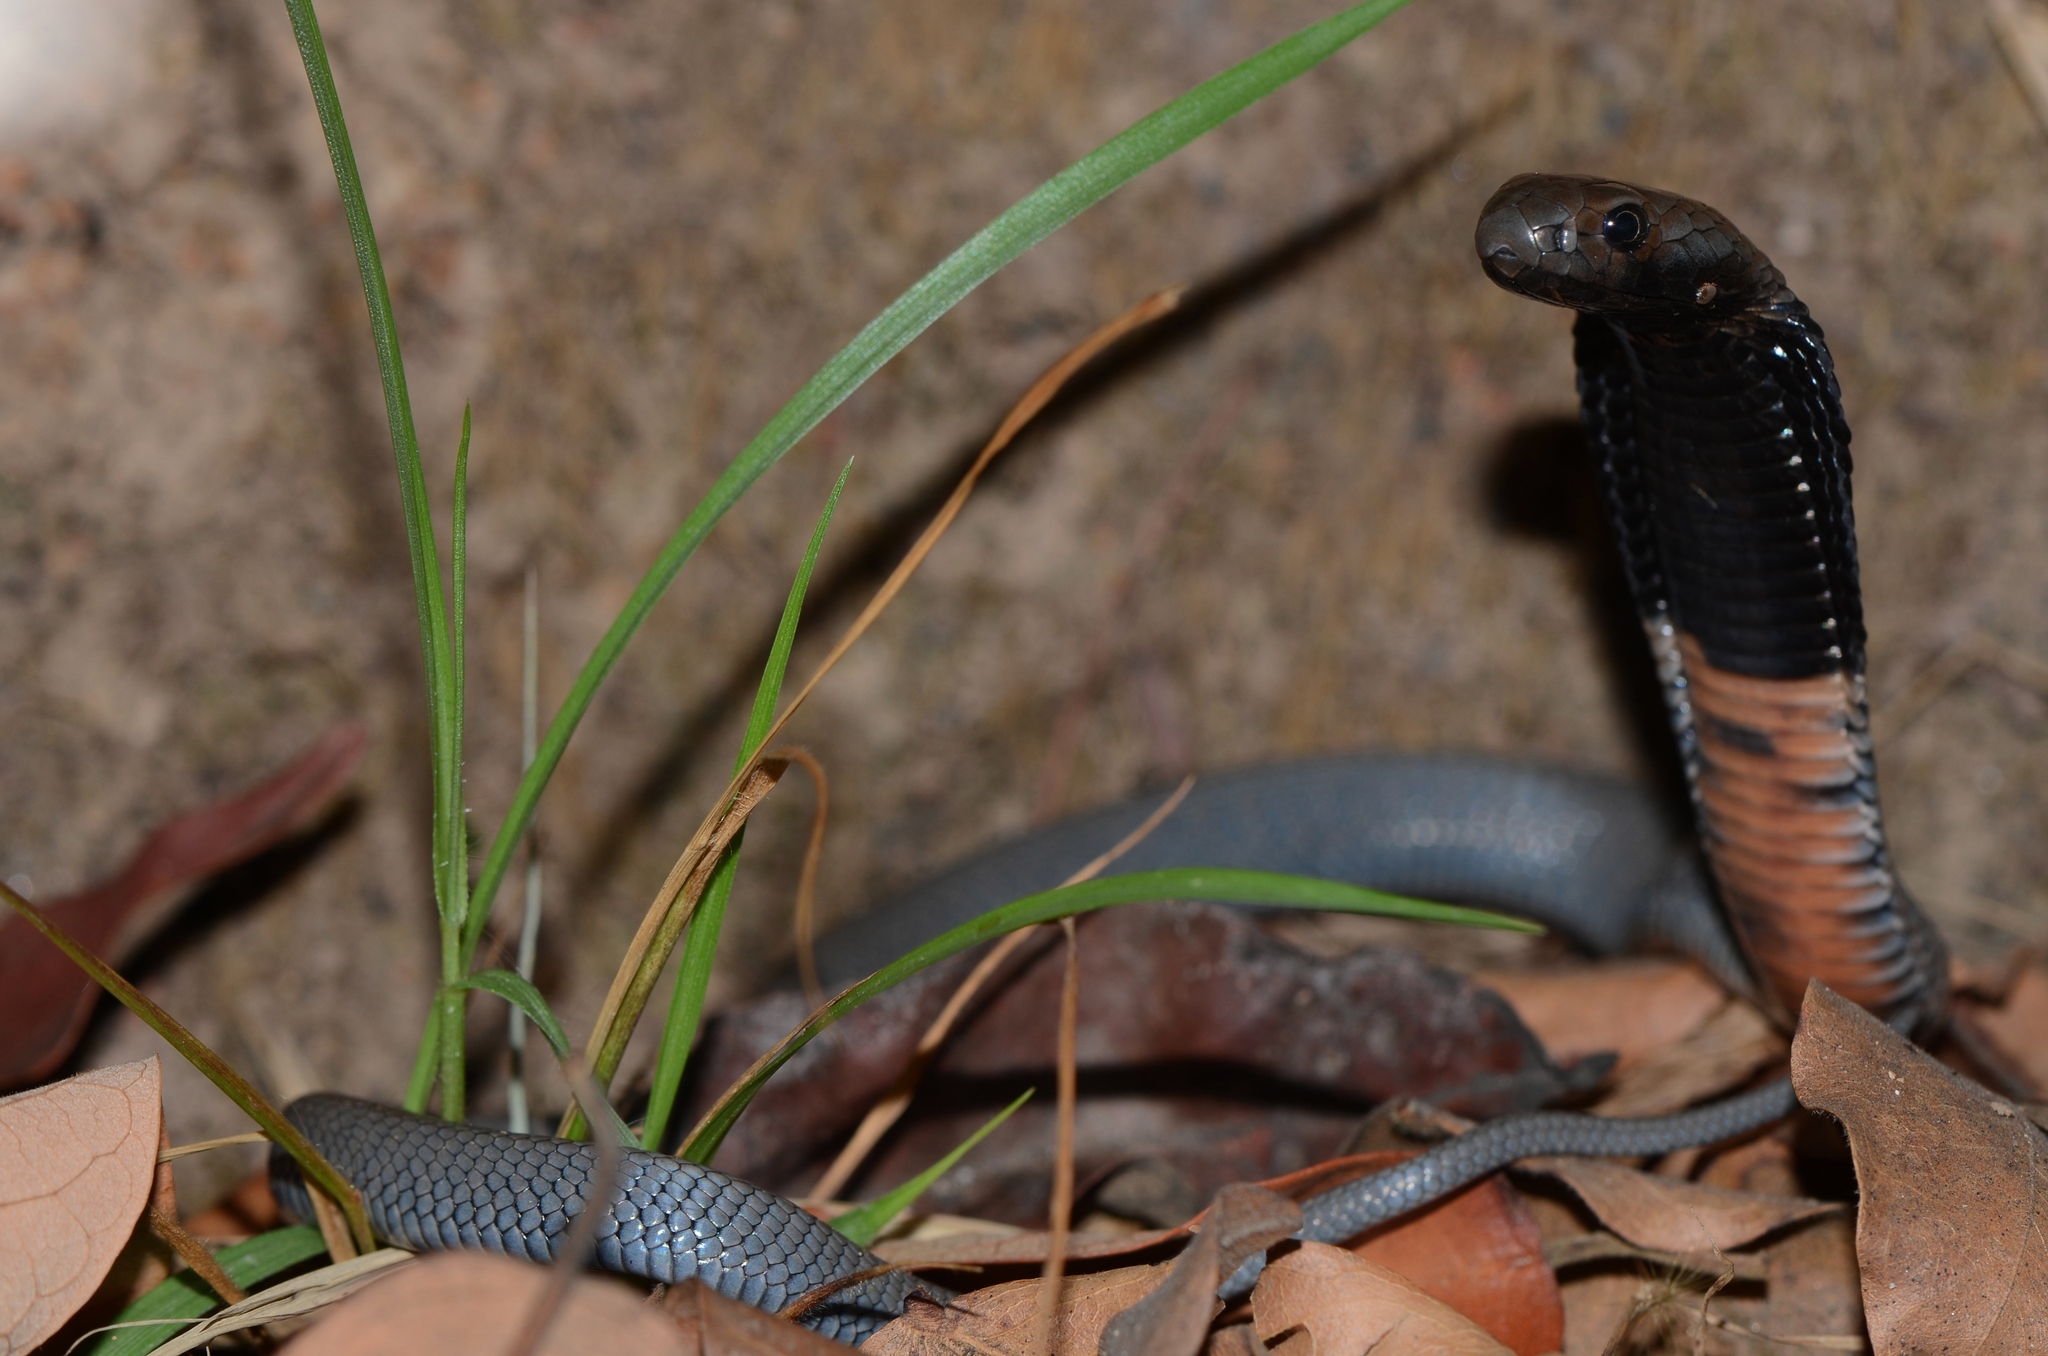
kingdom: Animalia
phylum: Chordata
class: Squamata
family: Elapidae
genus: Naja
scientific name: Naja nigricollis
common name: Black-necked spitting cobra
